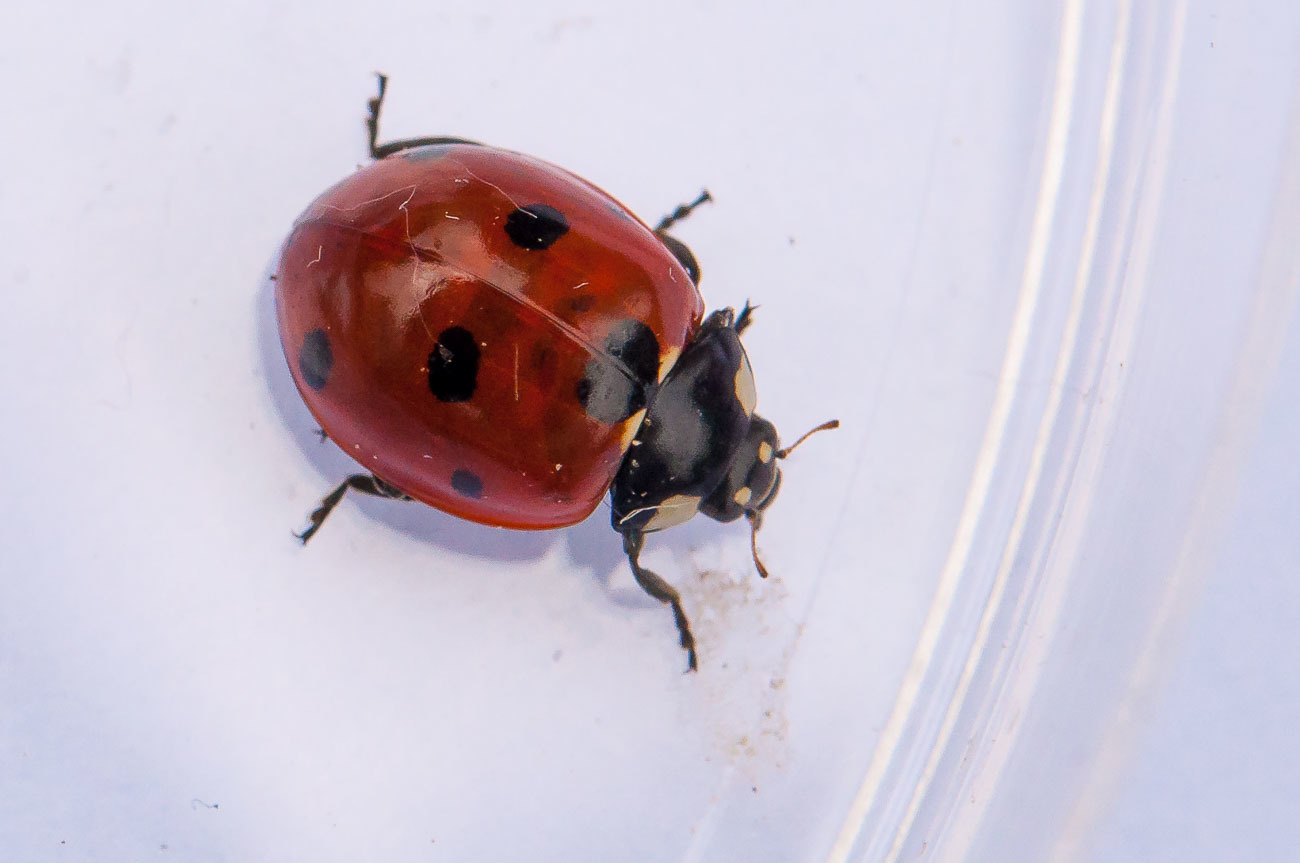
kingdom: Animalia
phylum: Arthropoda
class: Insecta
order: Coleoptera
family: Coccinellidae
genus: Coccinella
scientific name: Coccinella septempunctata
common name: Sevenspotted lady beetle
